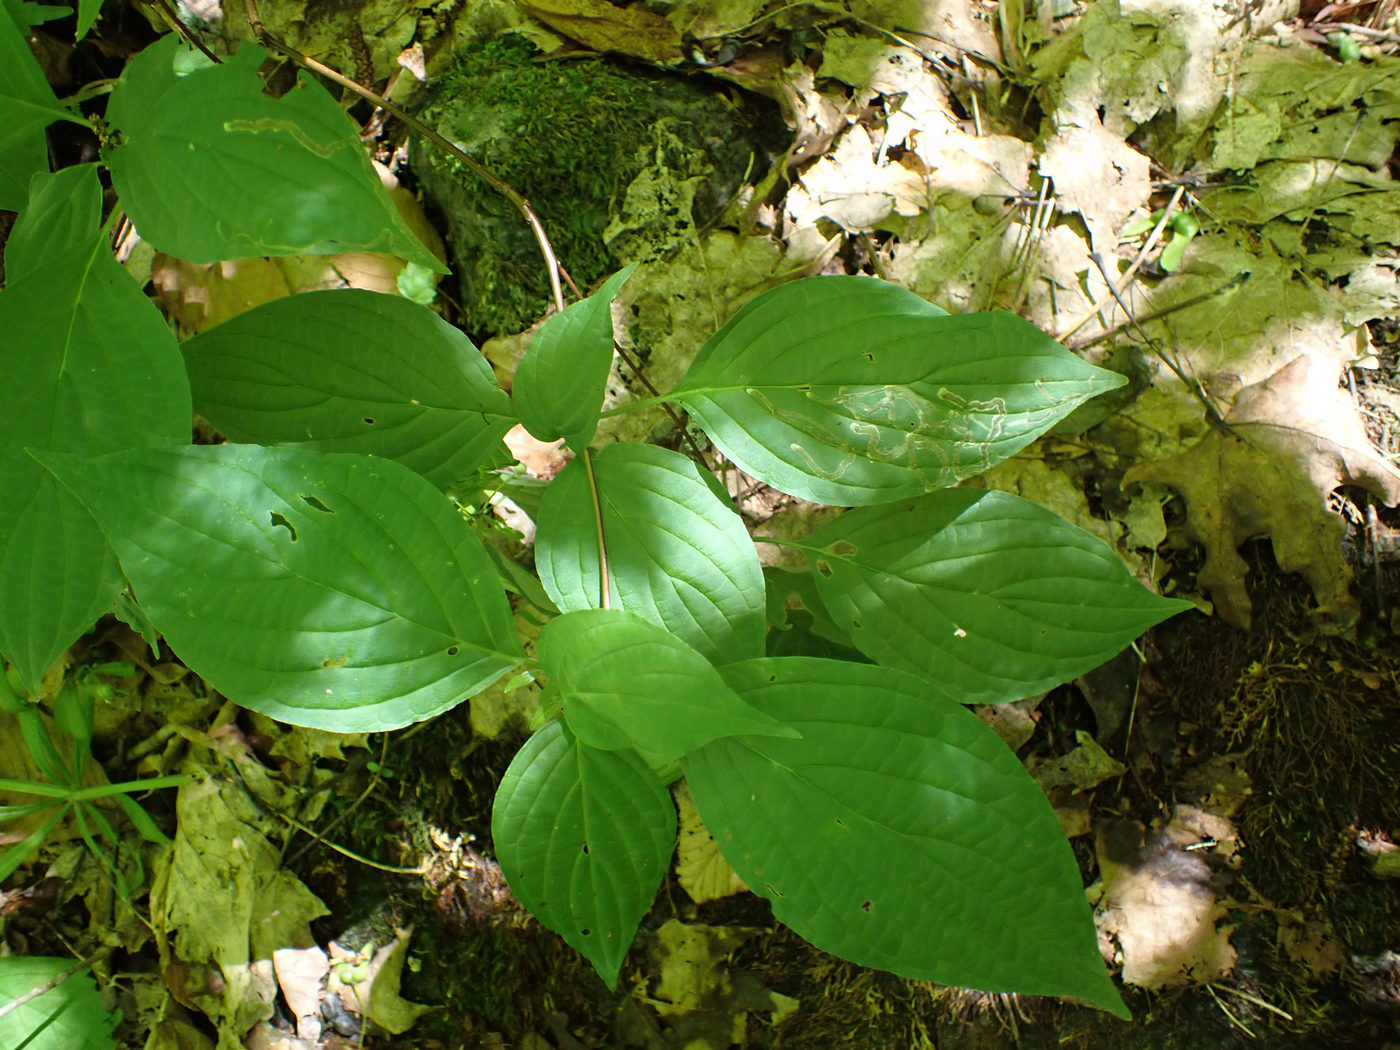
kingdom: Animalia
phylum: Arthropoda
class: Insecta
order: Diptera
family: Agromyzidae
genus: Phytomyza
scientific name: Phytomyza agromyzina
